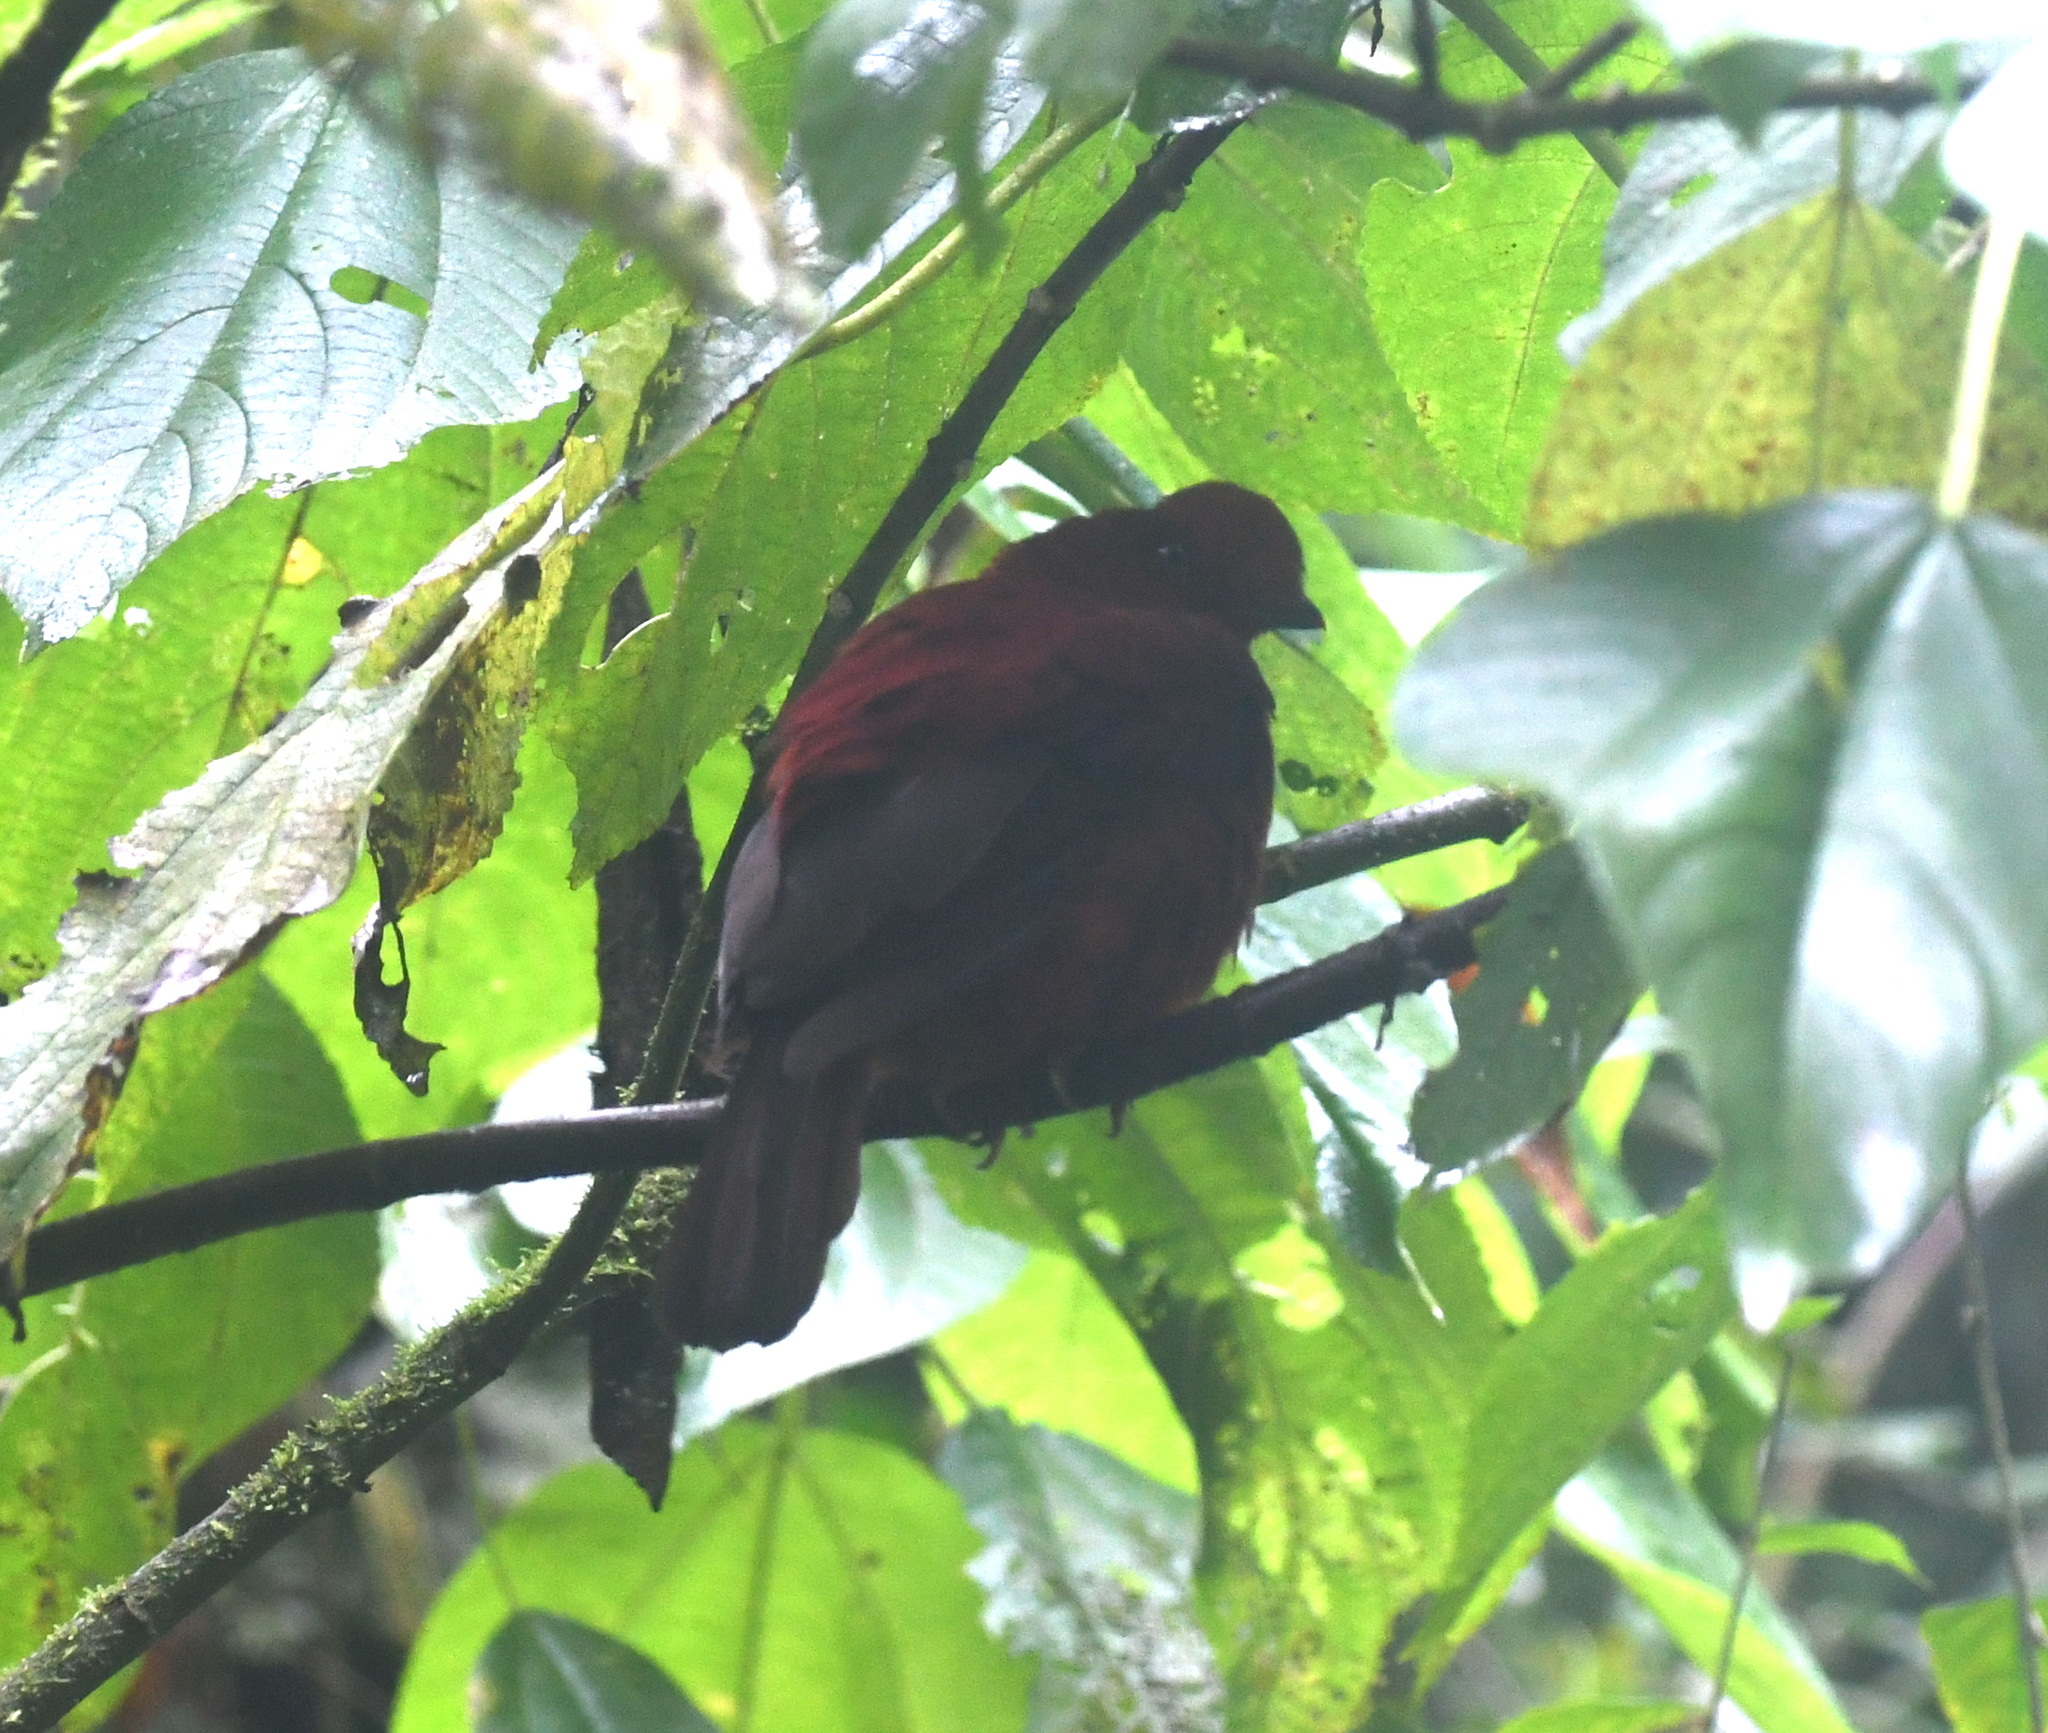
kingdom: Animalia
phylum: Chordata
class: Aves
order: Passeriformes
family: Cotingidae
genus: Rupicola
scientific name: Rupicola peruvianus
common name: Andean cock-of-the-rock
